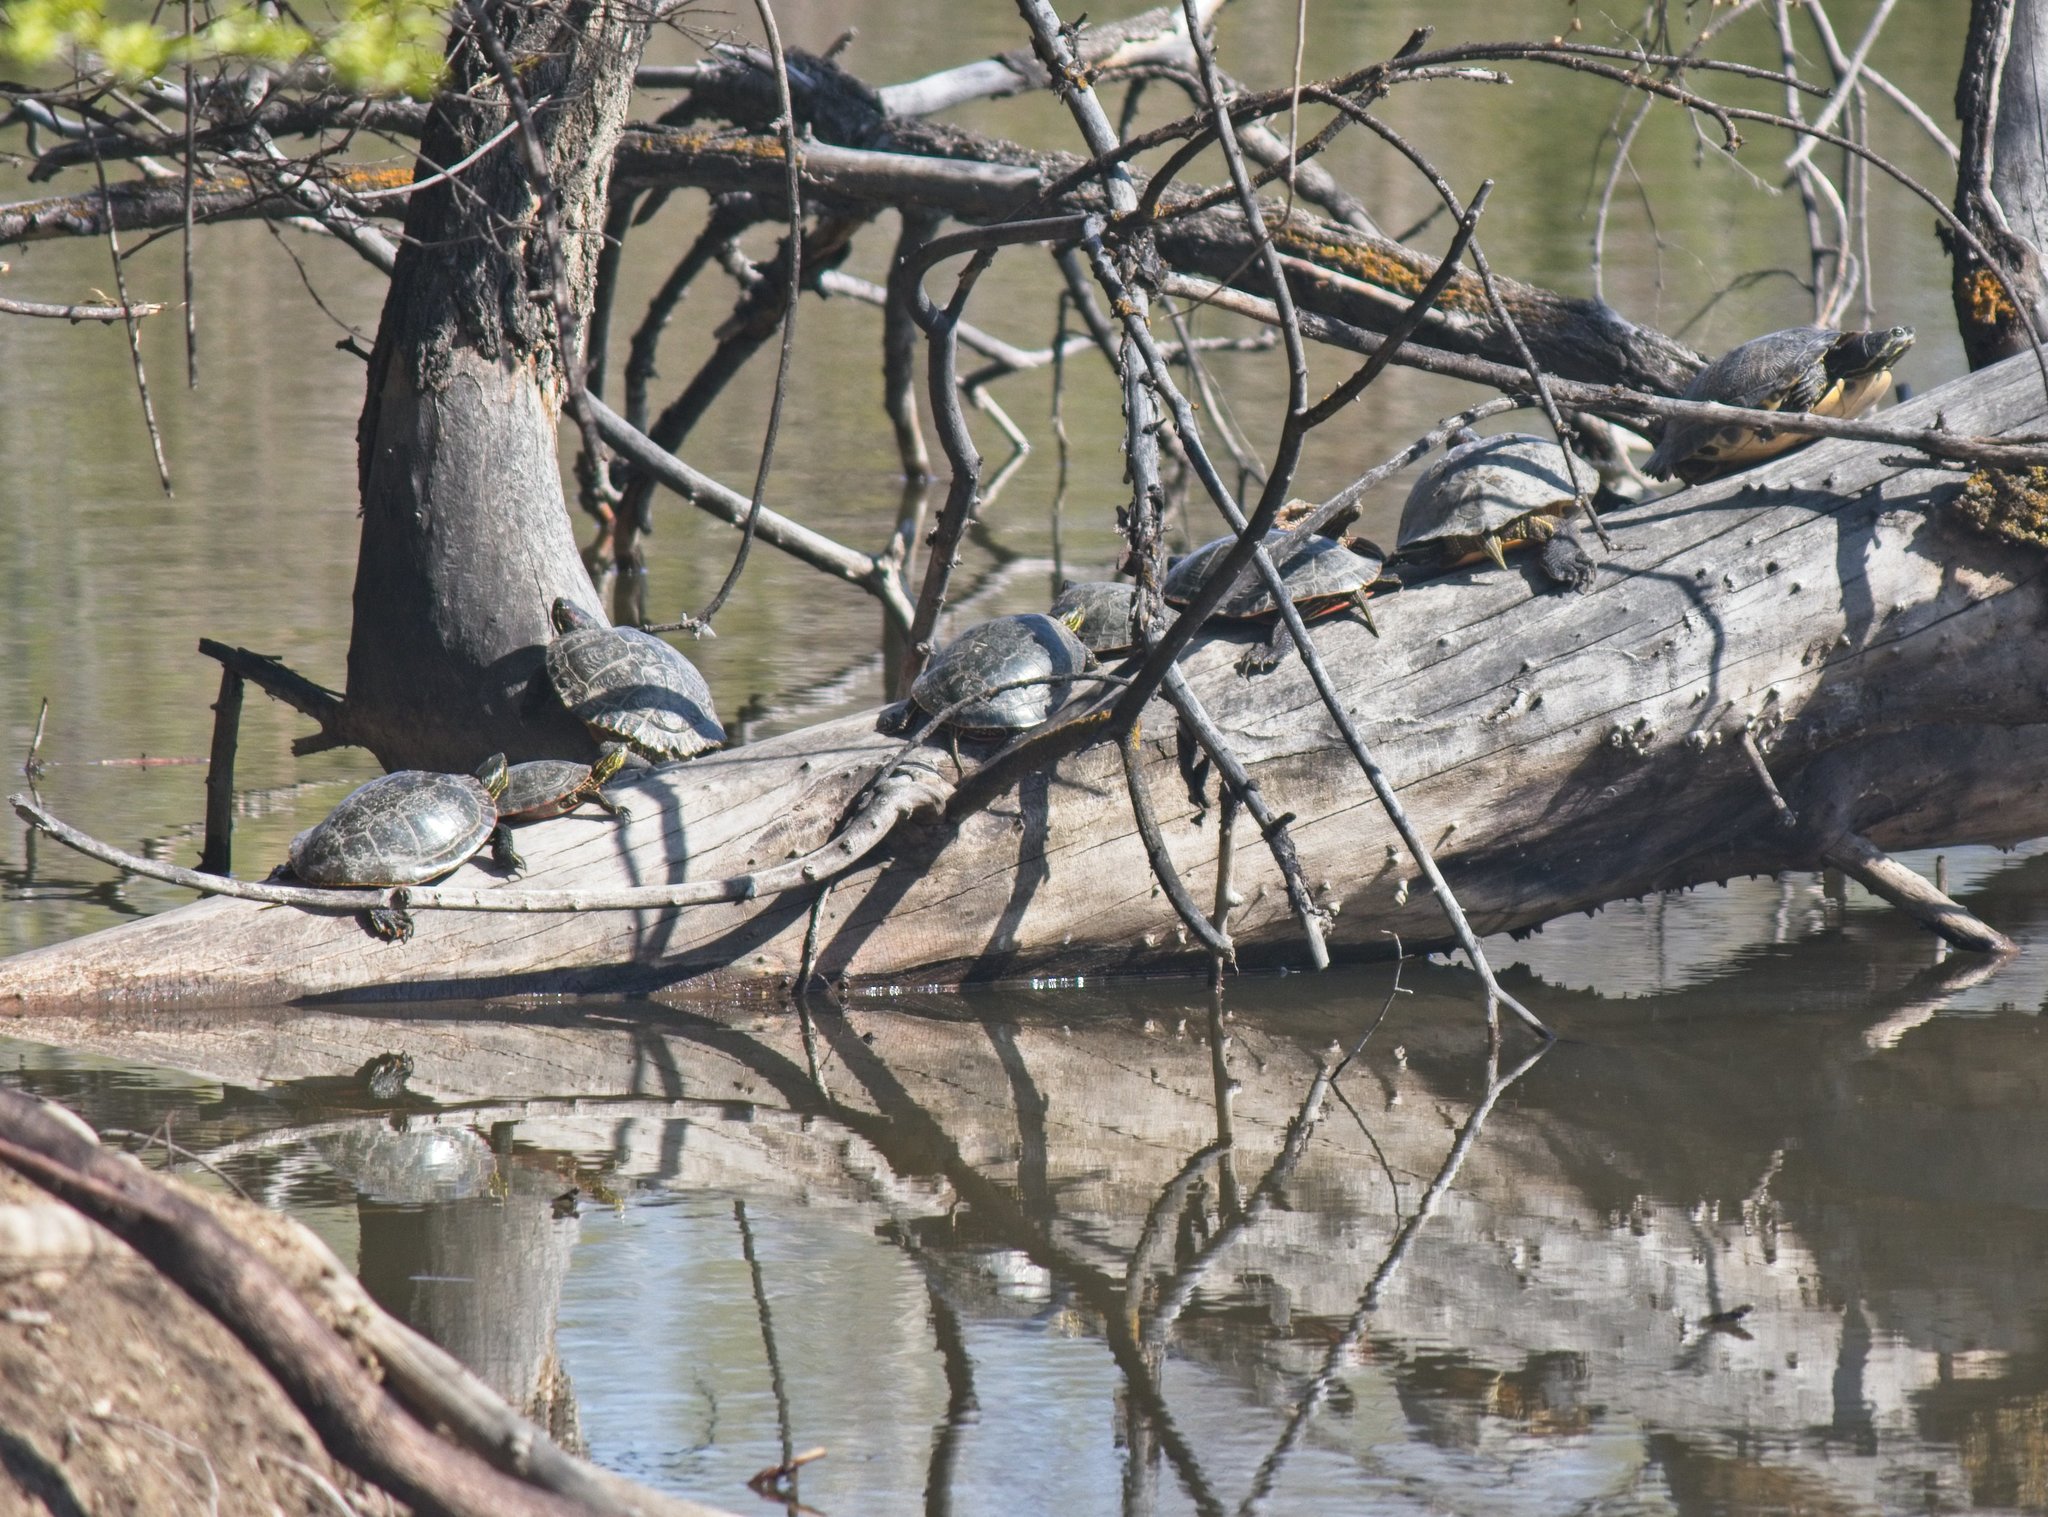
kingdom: Animalia
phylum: Chordata
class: Testudines
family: Emydidae
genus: Trachemys
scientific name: Trachemys scripta
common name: Slider
